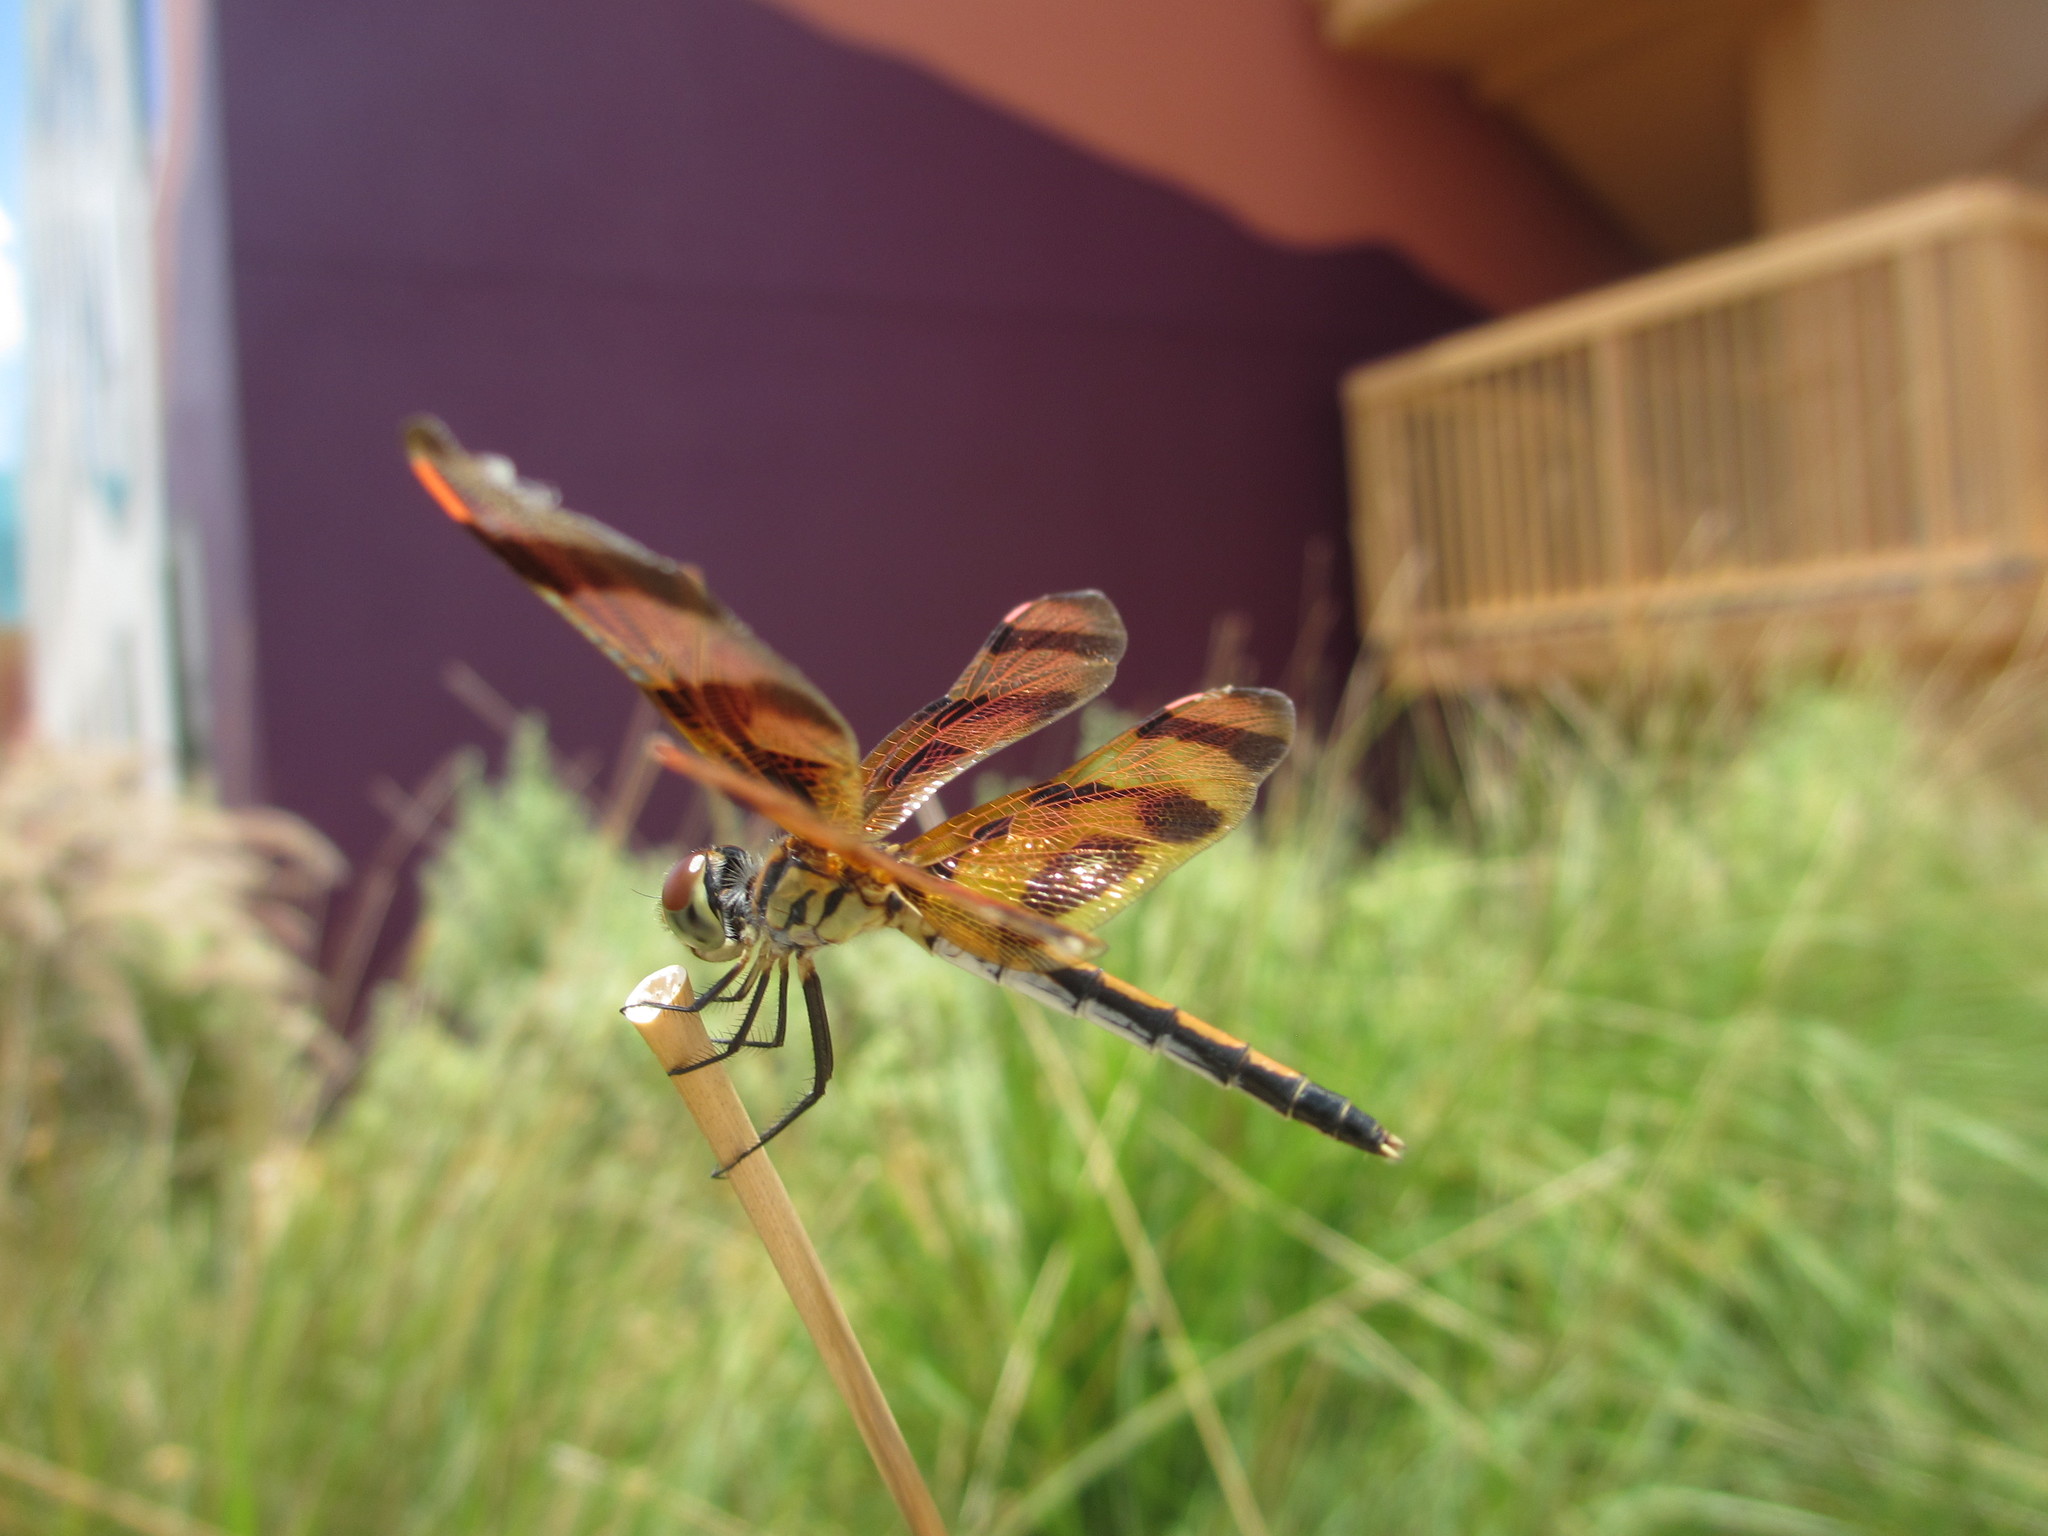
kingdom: Animalia
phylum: Arthropoda
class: Insecta
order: Odonata
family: Libellulidae
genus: Celithemis
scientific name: Celithemis eponina
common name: Halloween pennant
